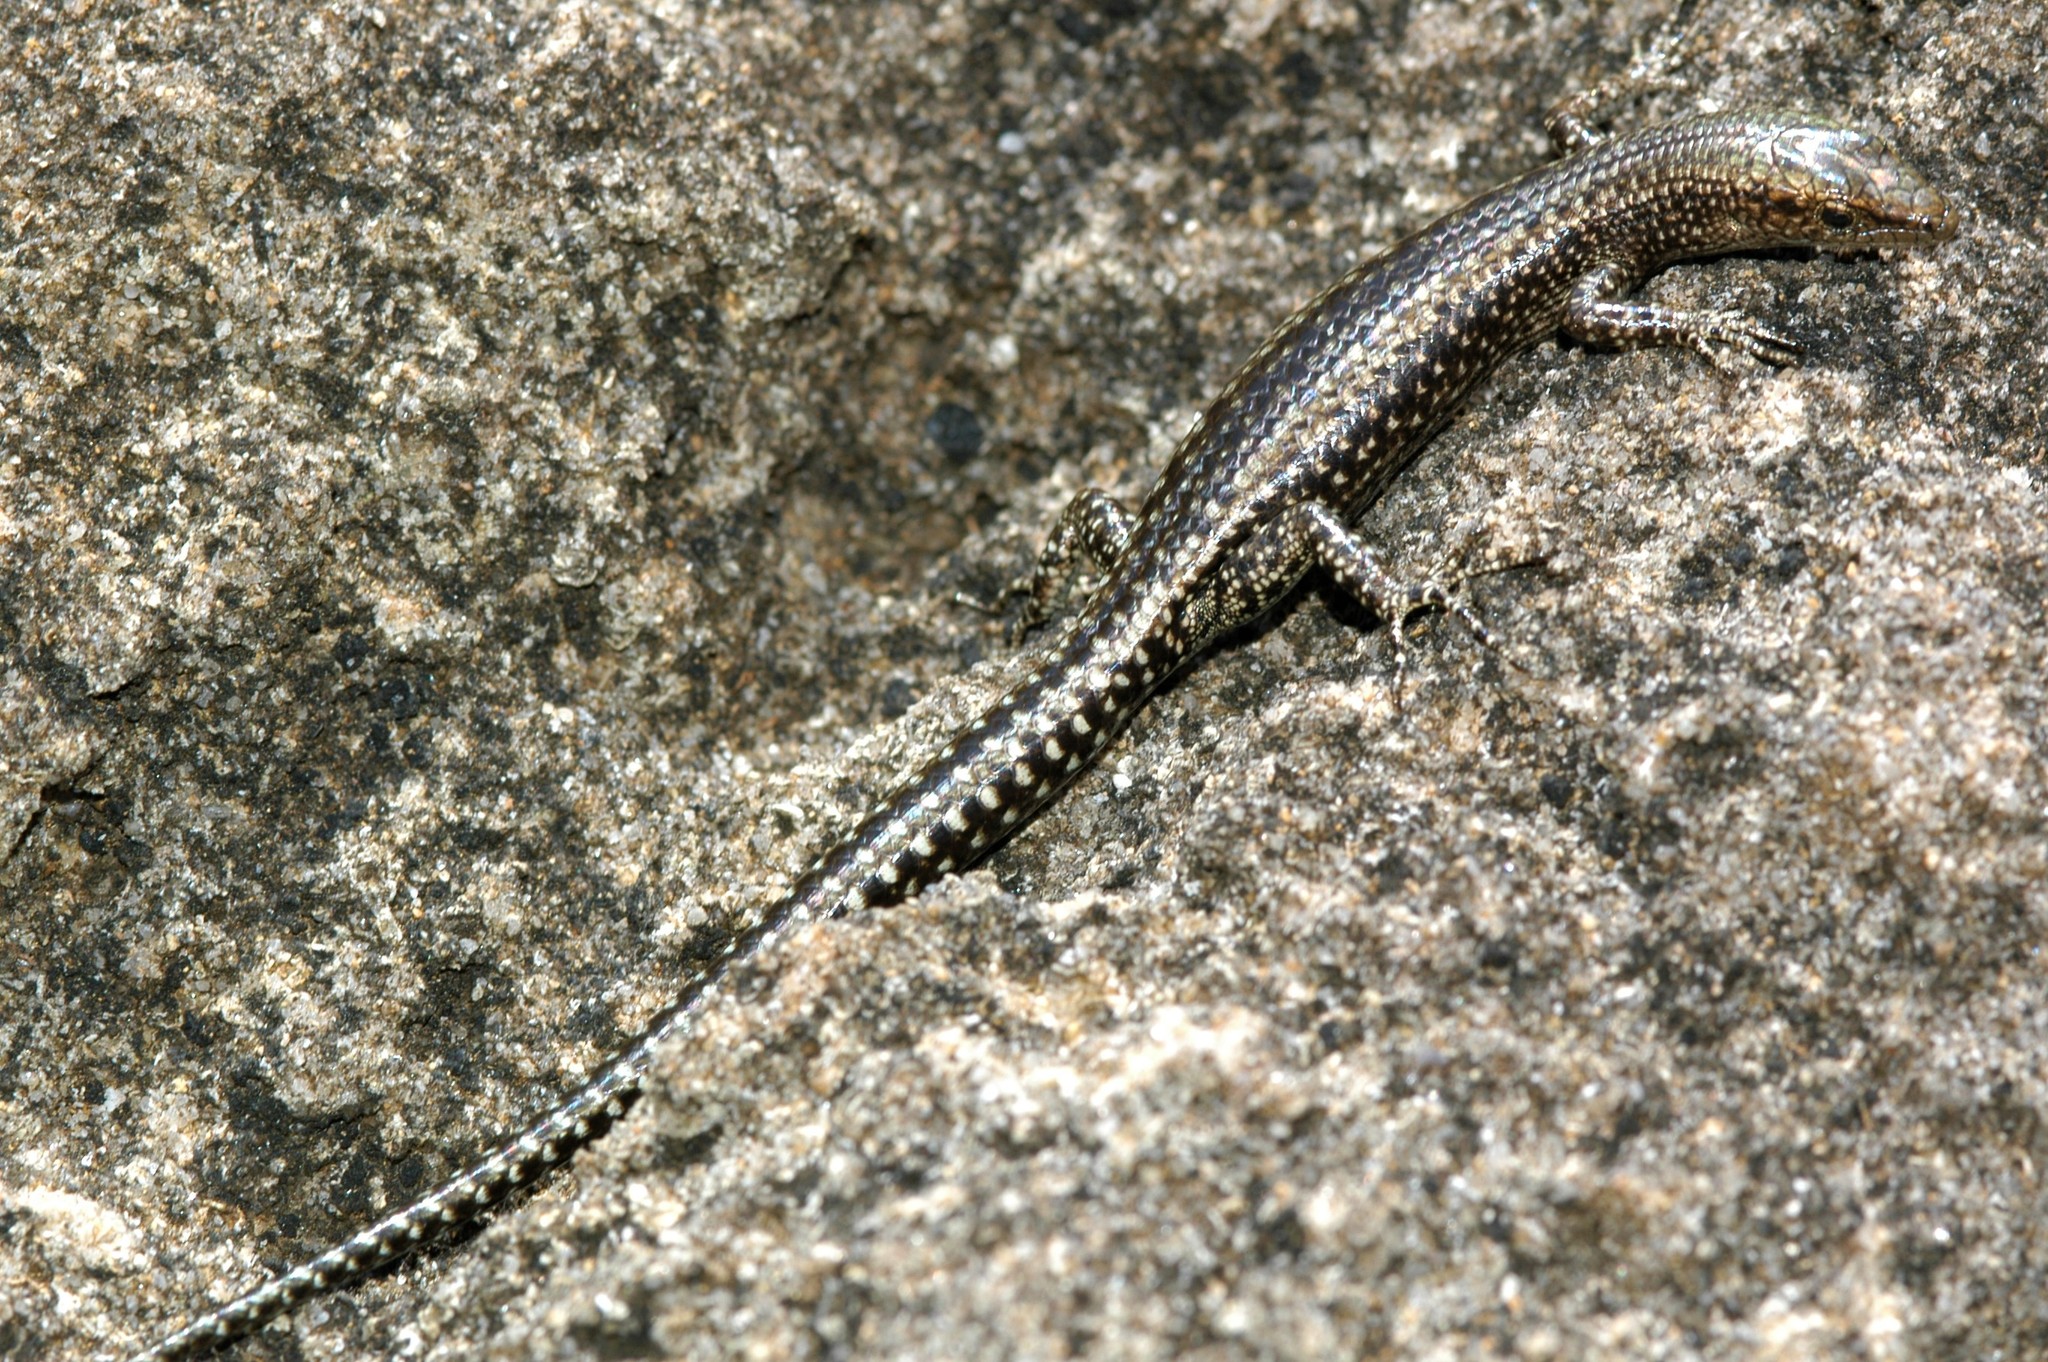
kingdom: Animalia
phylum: Chordata
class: Squamata
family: Scincidae
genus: Cryptoblepharus
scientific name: Cryptoblepharus voeltzkowi
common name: Voeltzkow’s snake-eyed skink
